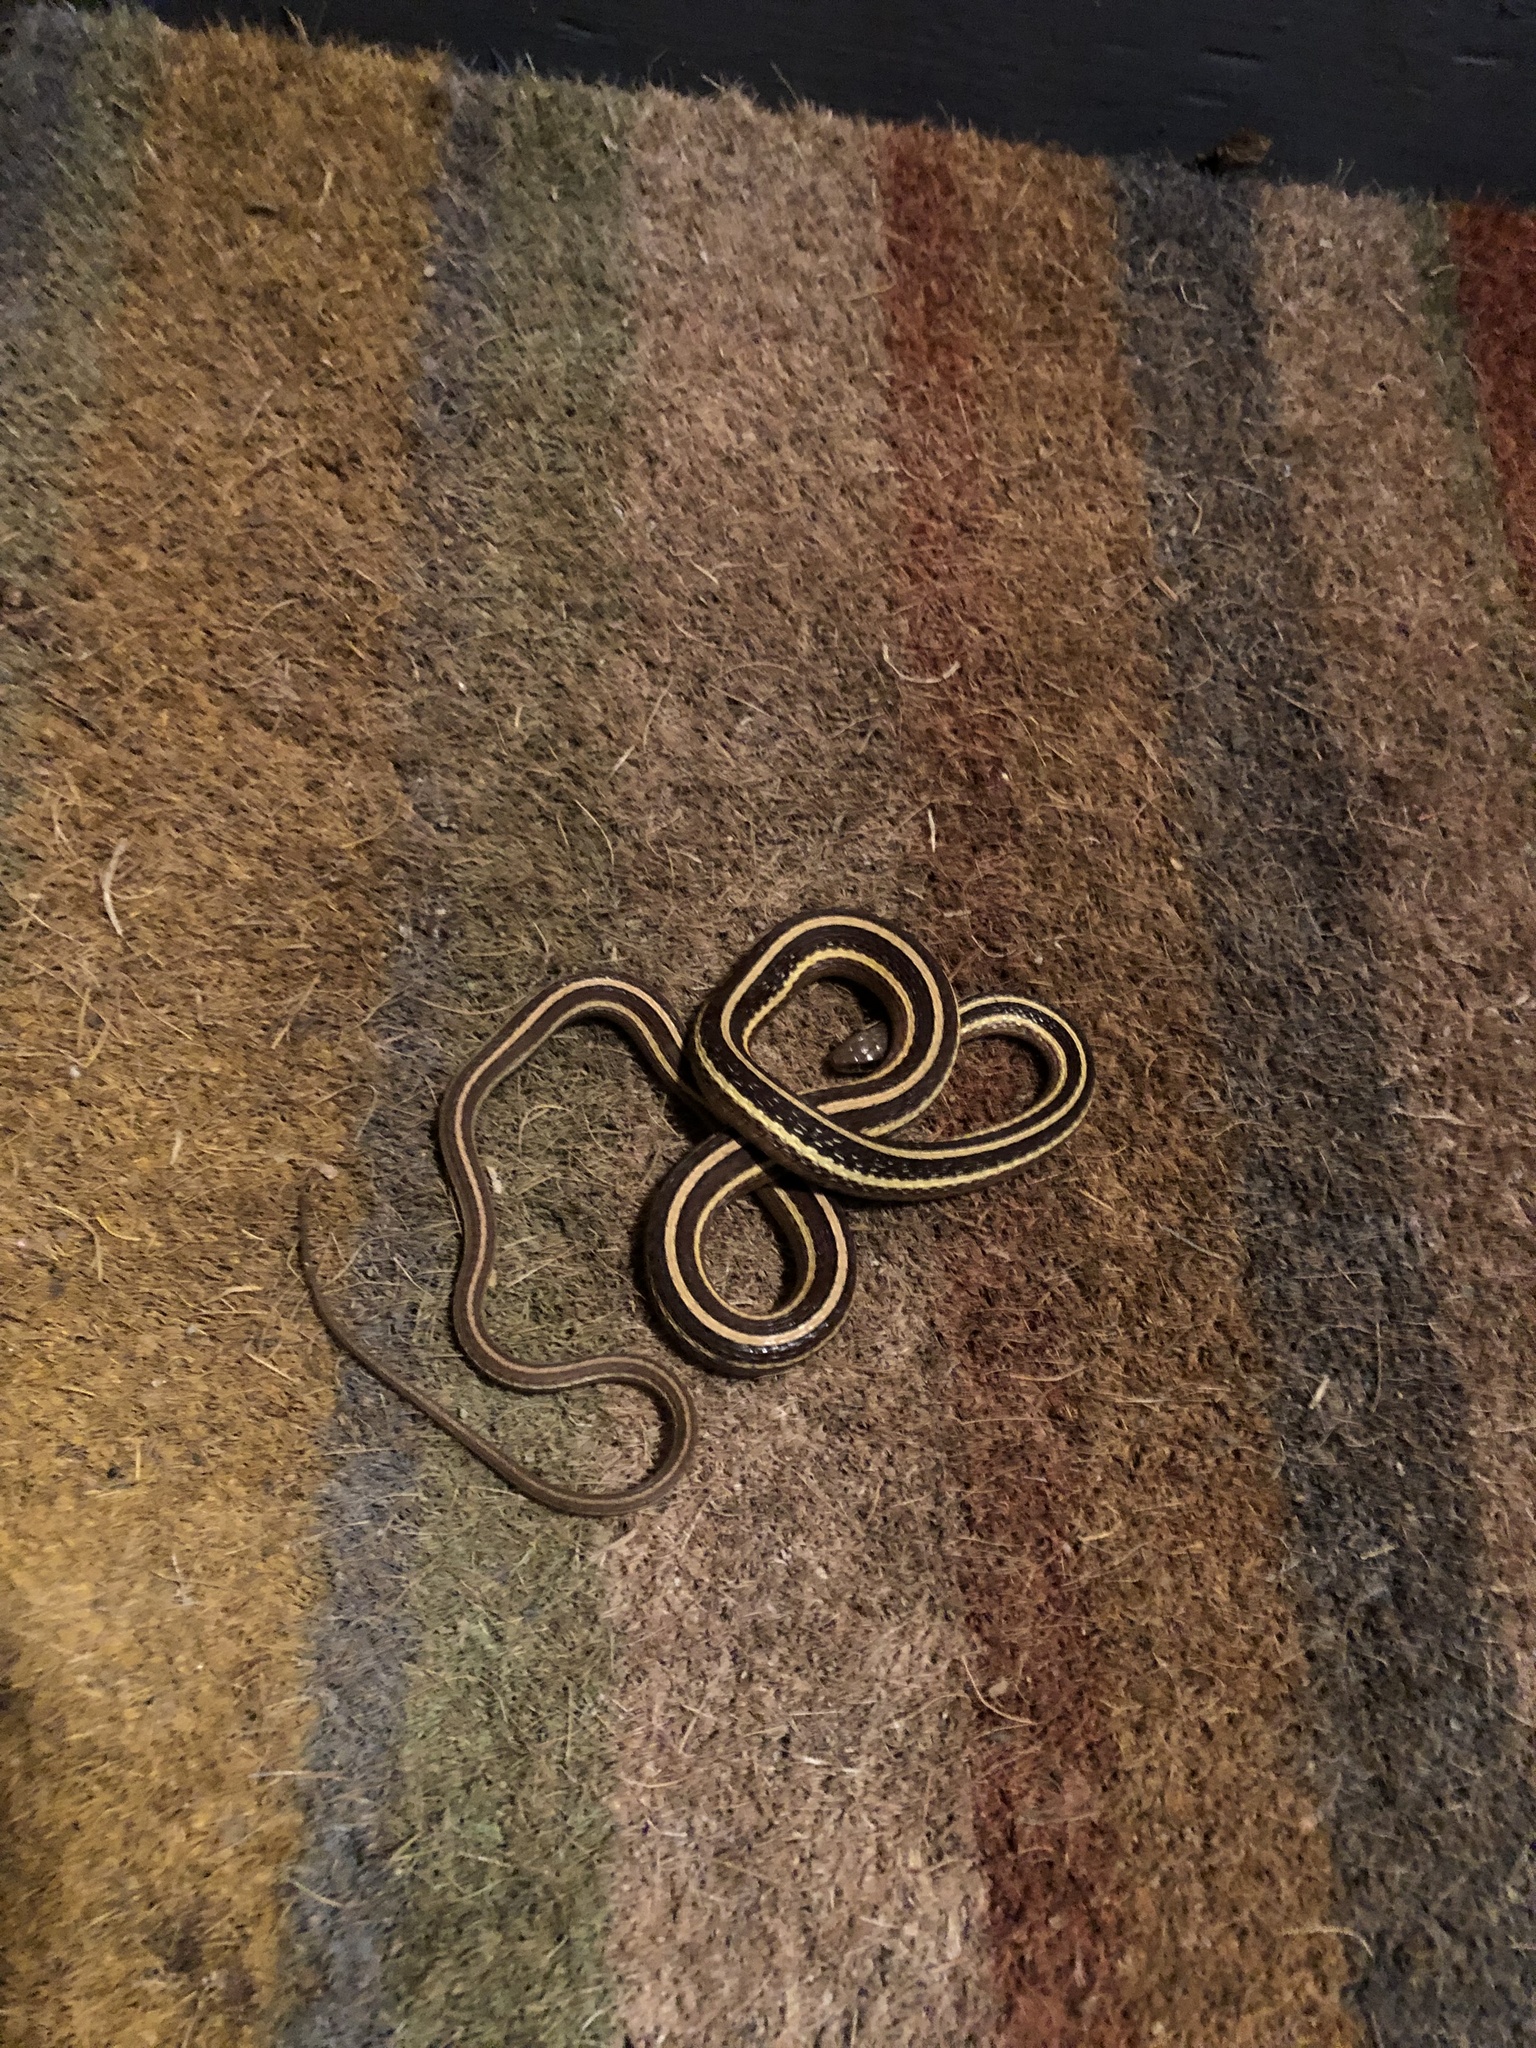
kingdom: Animalia
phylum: Chordata
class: Squamata
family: Colubridae
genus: Thamnophis
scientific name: Thamnophis saurita
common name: Eastern ribbonsnake
